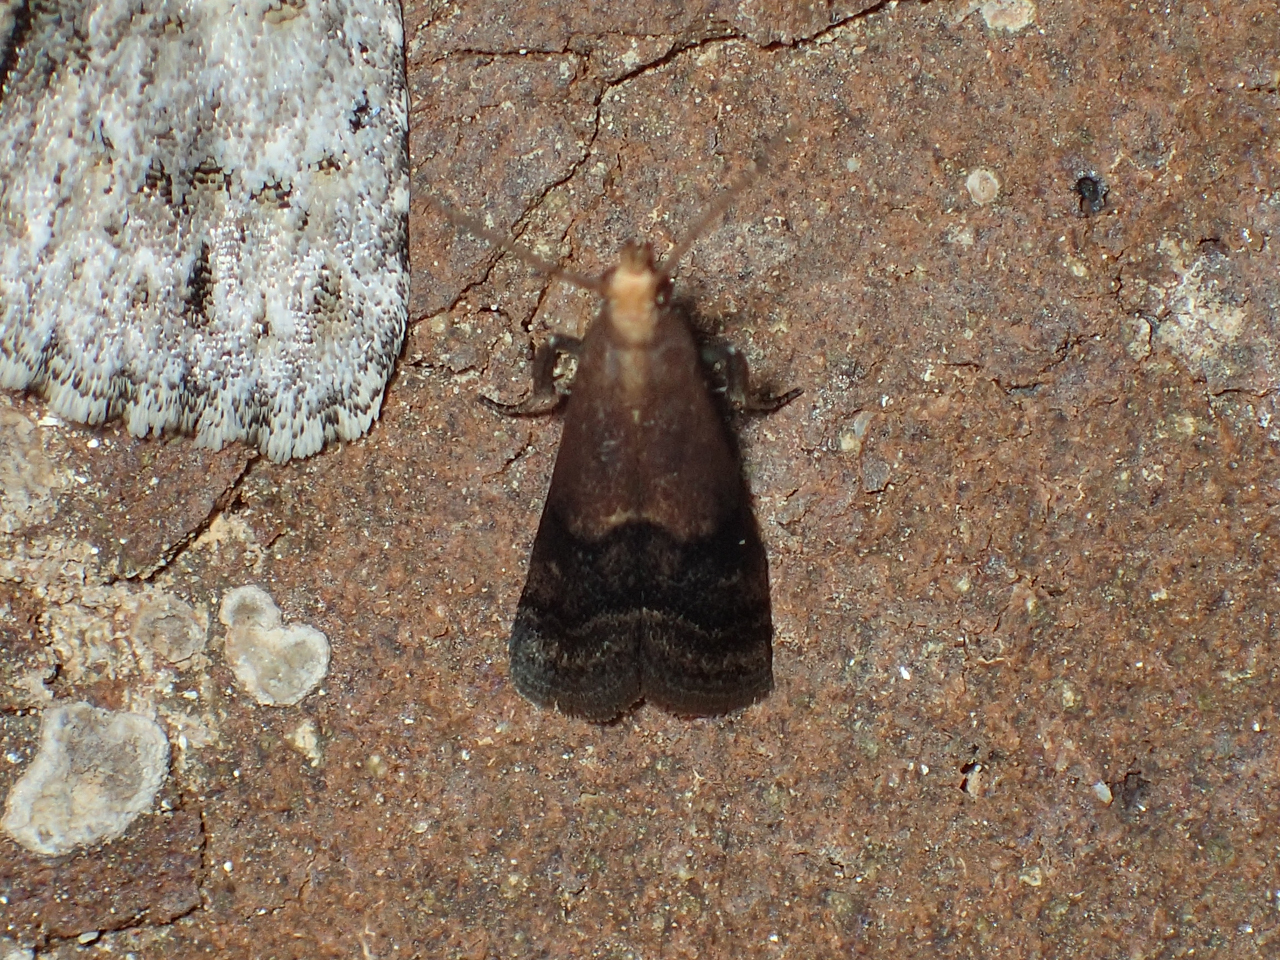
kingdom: Animalia
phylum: Arthropoda
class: Insecta
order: Lepidoptera
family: Pyralidae
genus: Eulogia
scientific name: Eulogia ochrifrontella
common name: Broad-banded eulogia moth
